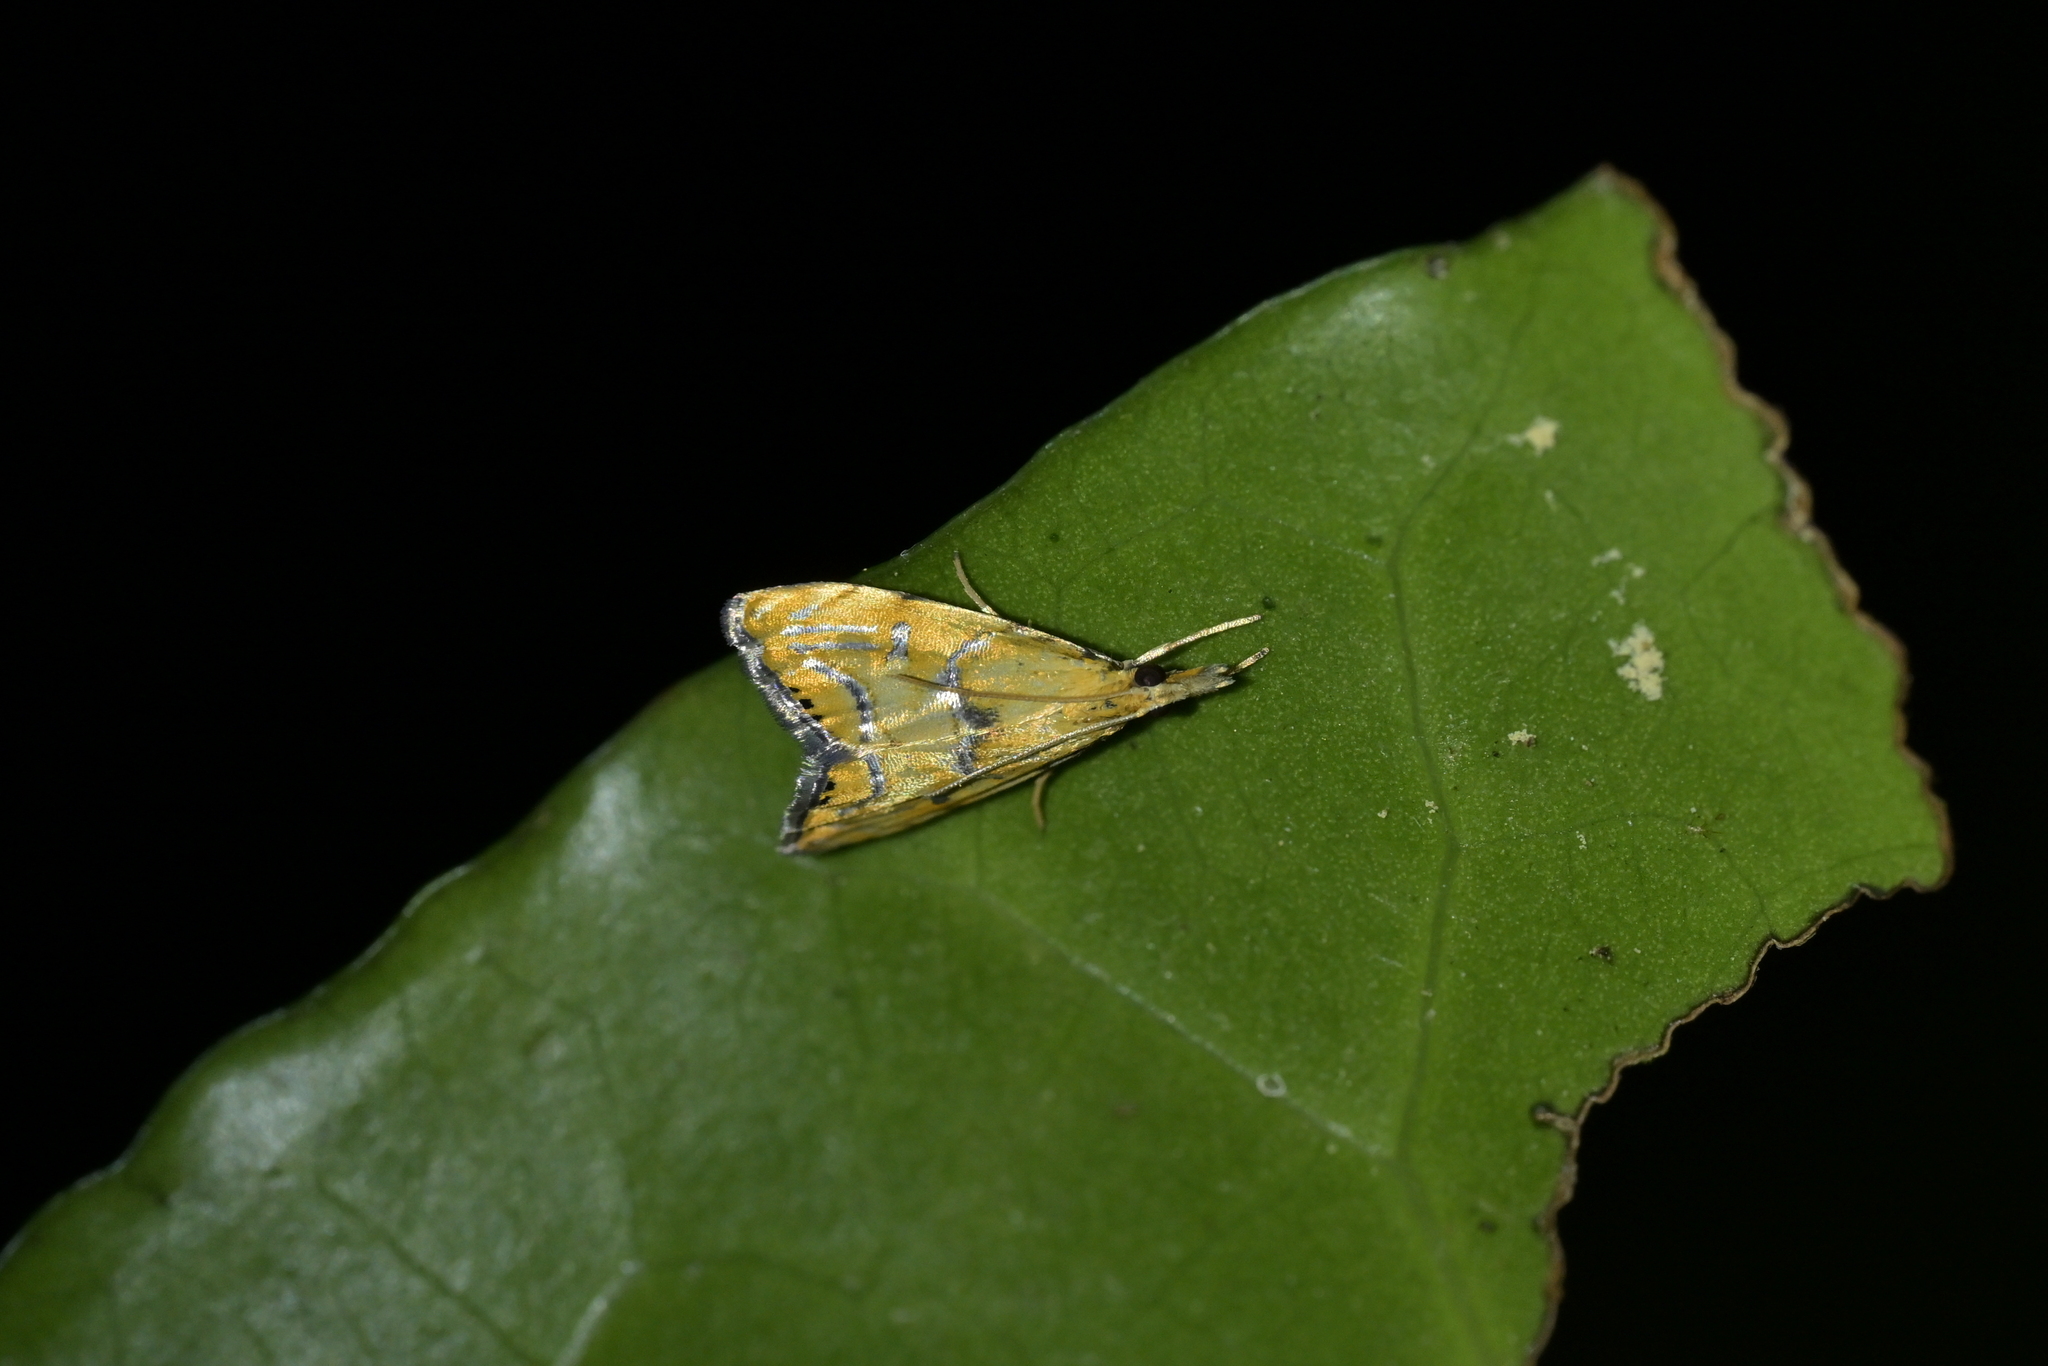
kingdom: Animalia
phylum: Arthropoda
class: Insecta
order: Lepidoptera
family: Crambidae
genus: Glaucocharis
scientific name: Glaucocharis auriscriptella
